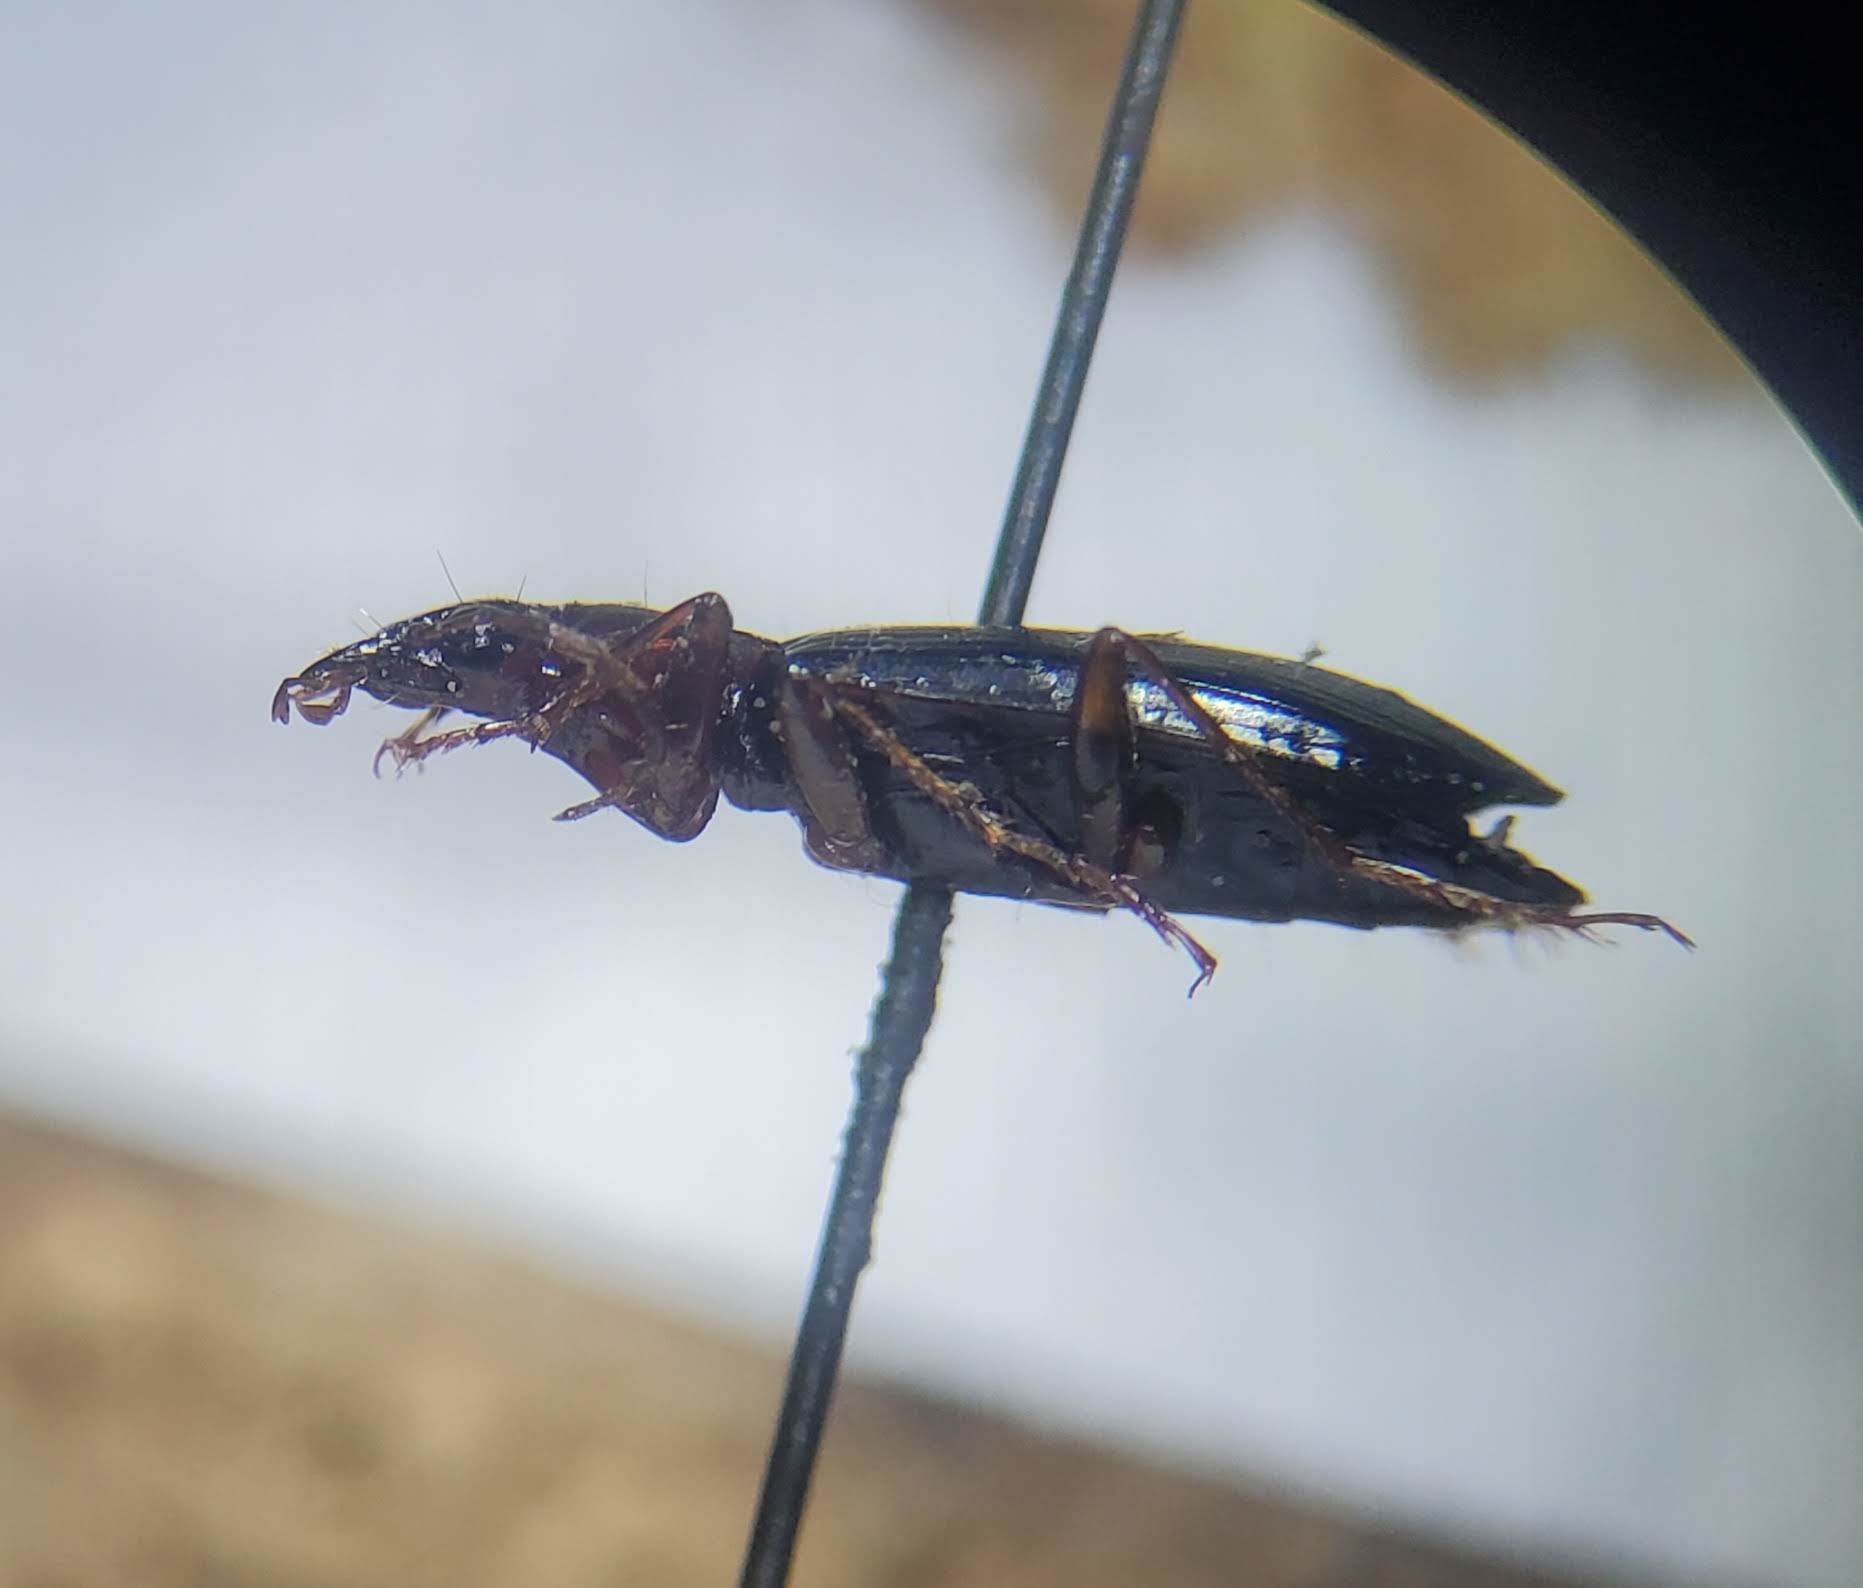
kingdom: Animalia
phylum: Arthropoda
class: Insecta
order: Coleoptera
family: Carabidae
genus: Platynus
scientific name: Platynus brunneomarginatus
